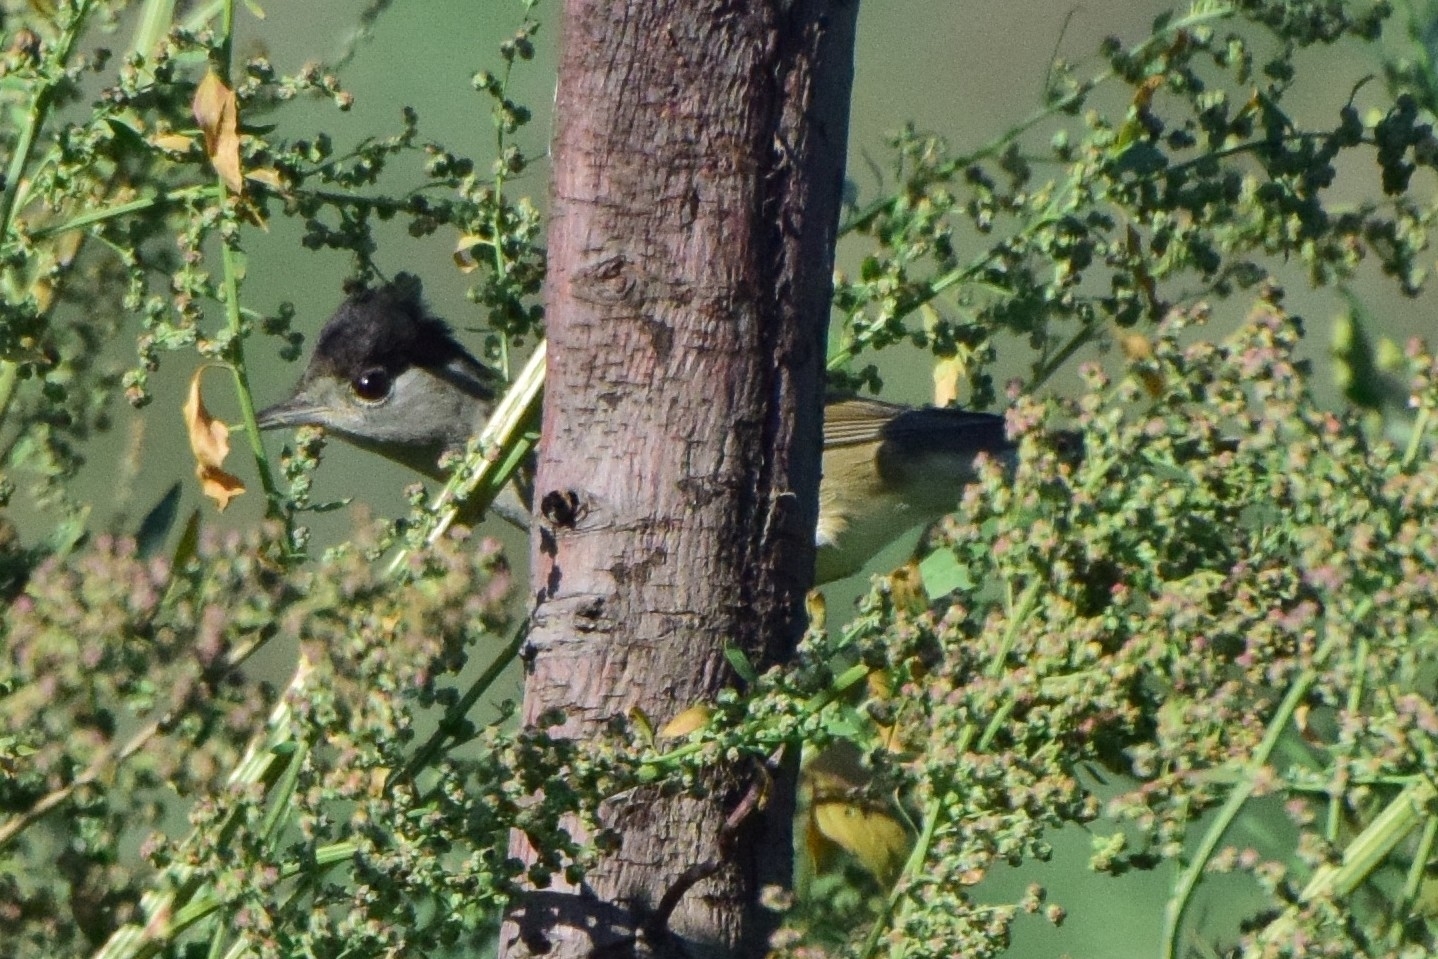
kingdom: Animalia
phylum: Chordata
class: Aves
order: Passeriformes
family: Sylviidae
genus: Sylvia
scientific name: Sylvia atricapilla
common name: Eurasian blackcap
